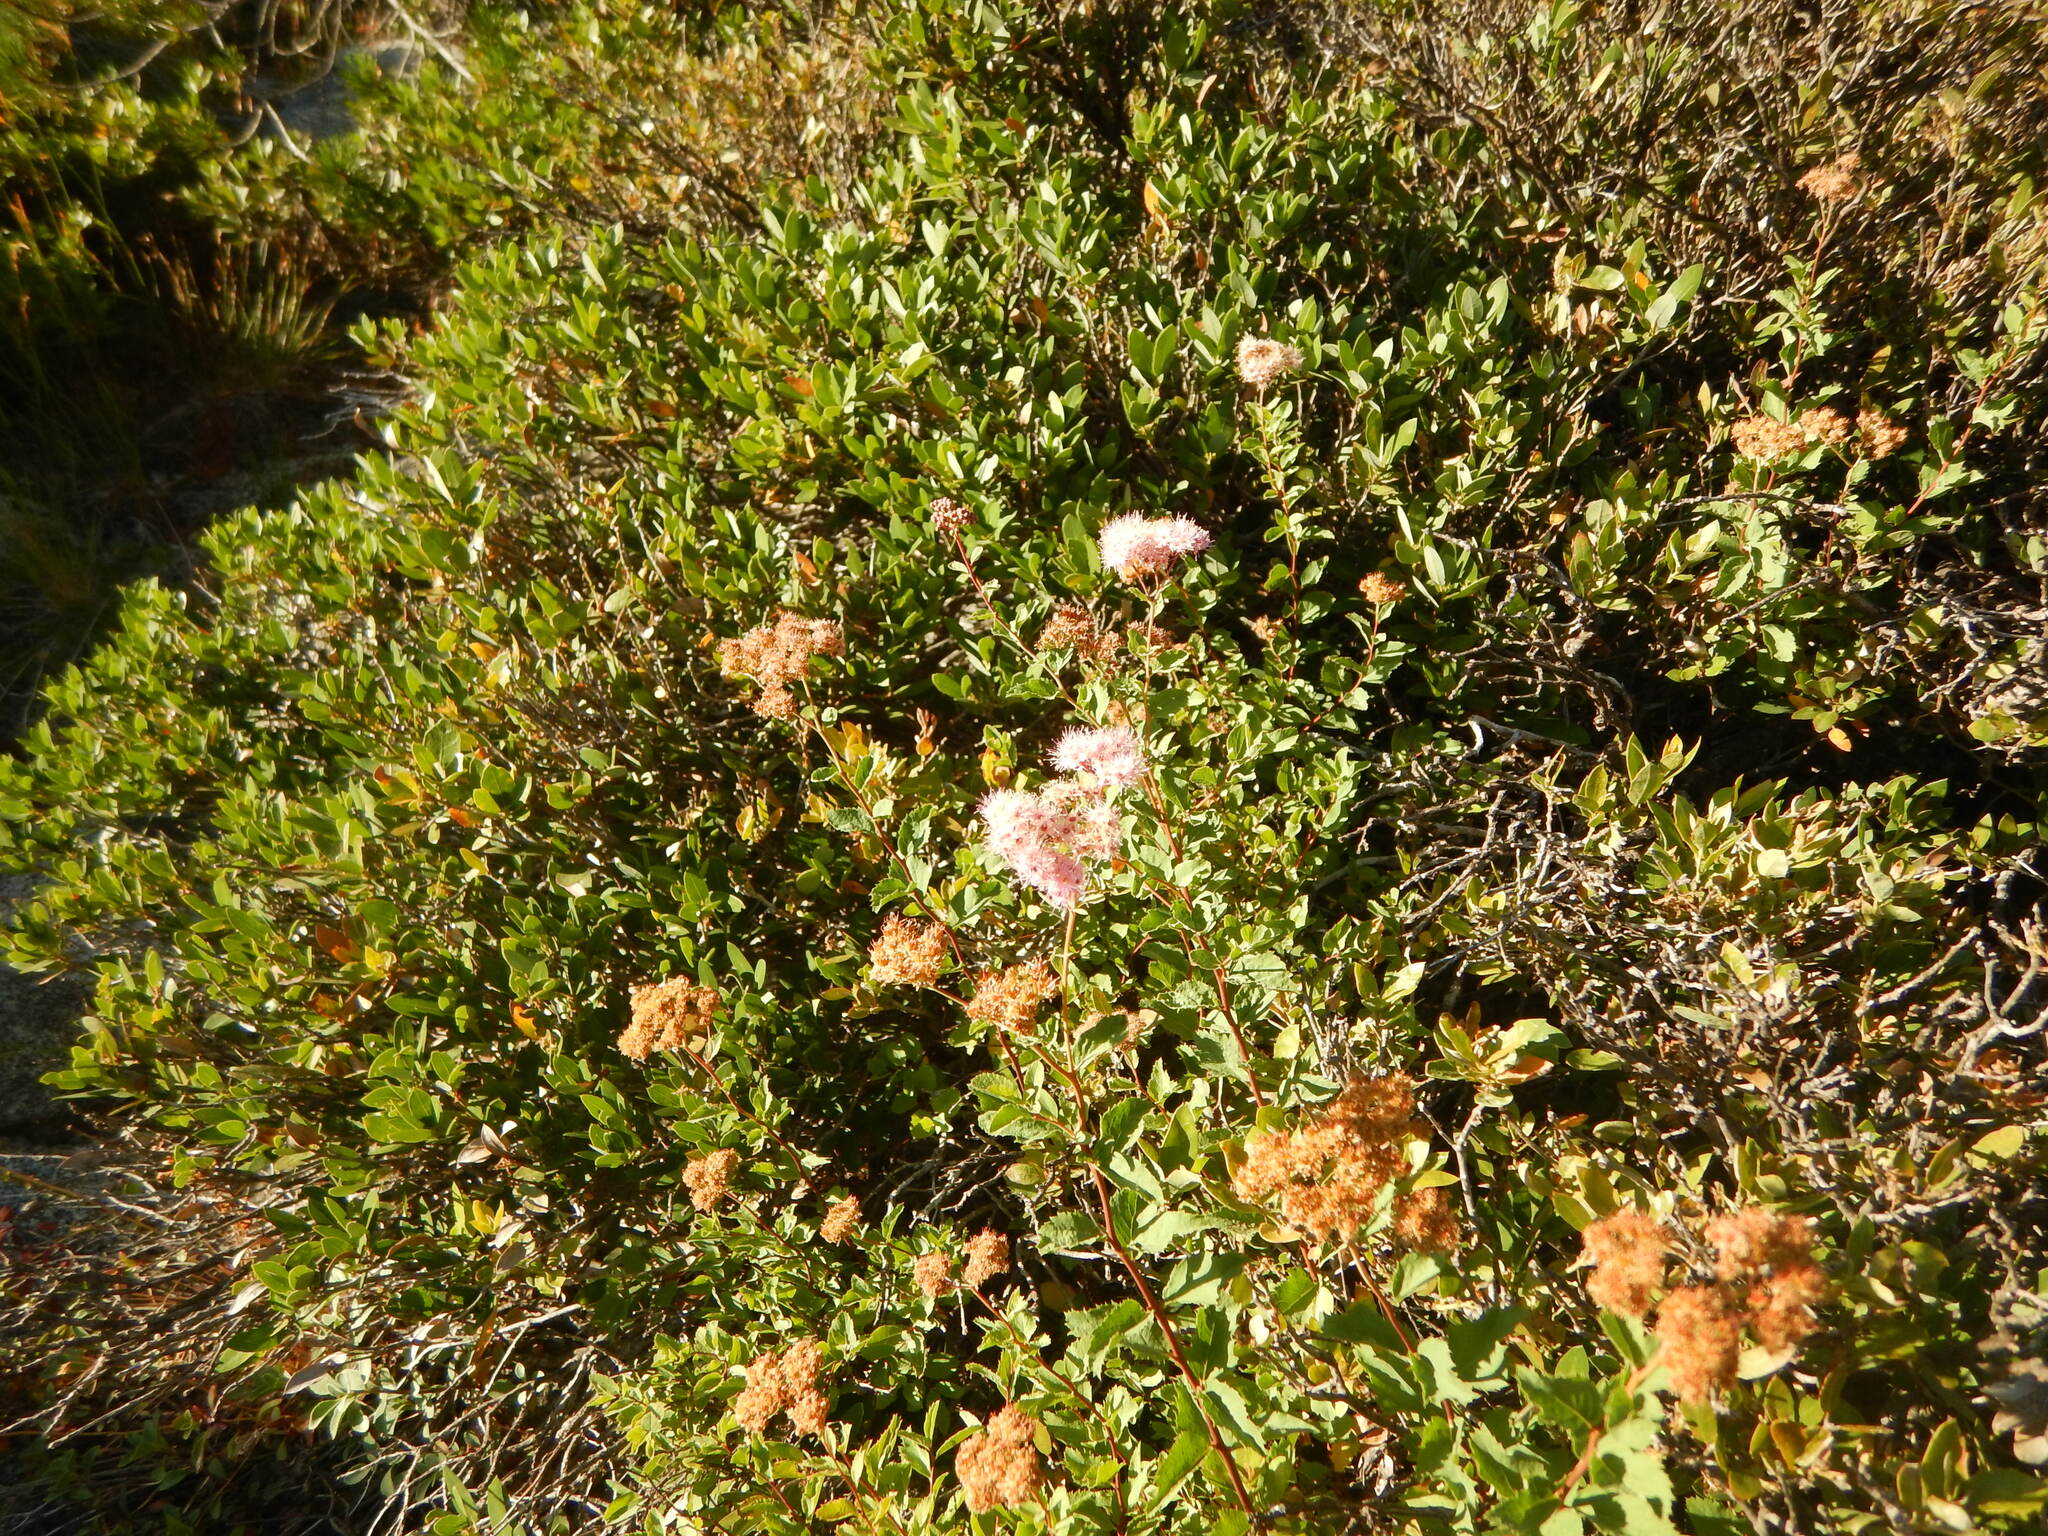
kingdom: Plantae
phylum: Tracheophyta
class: Magnoliopsida
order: Rosales
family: Rosaceae
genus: Spiraea
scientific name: Spiraea splendens
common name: Subalpine meadowsweet
